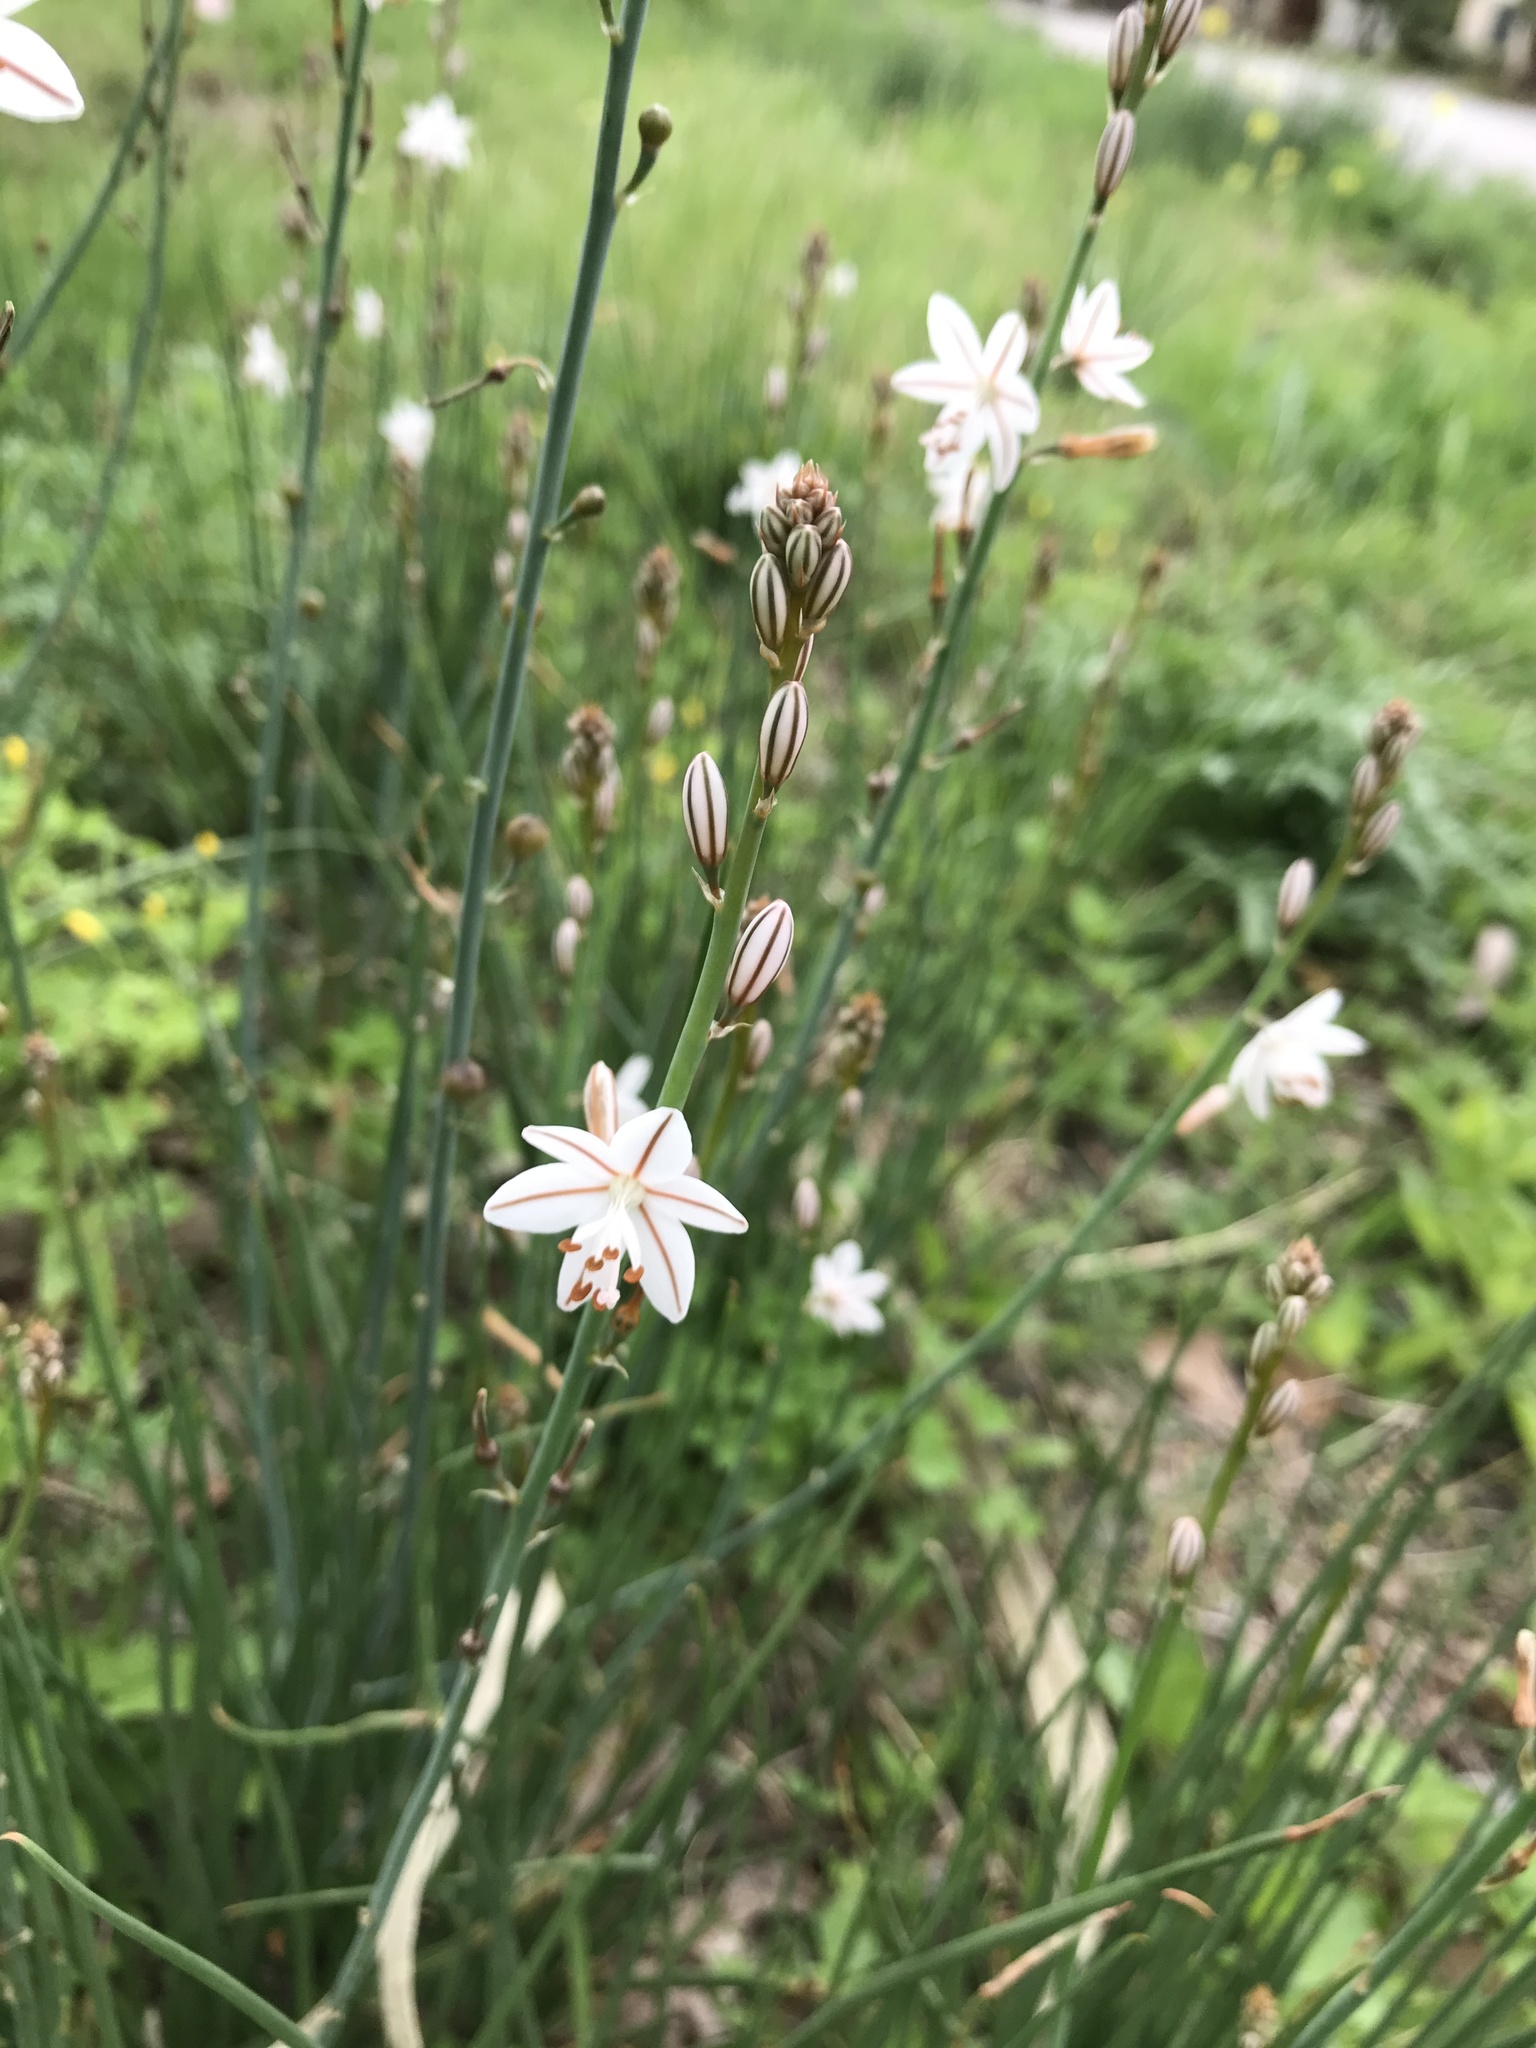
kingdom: Plantae
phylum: Tracheophyta
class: Liliopsida
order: Asparagales
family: Asphodelaceae
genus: Asphodelus
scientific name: Asphodelus fistulosus
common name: Onionweed
